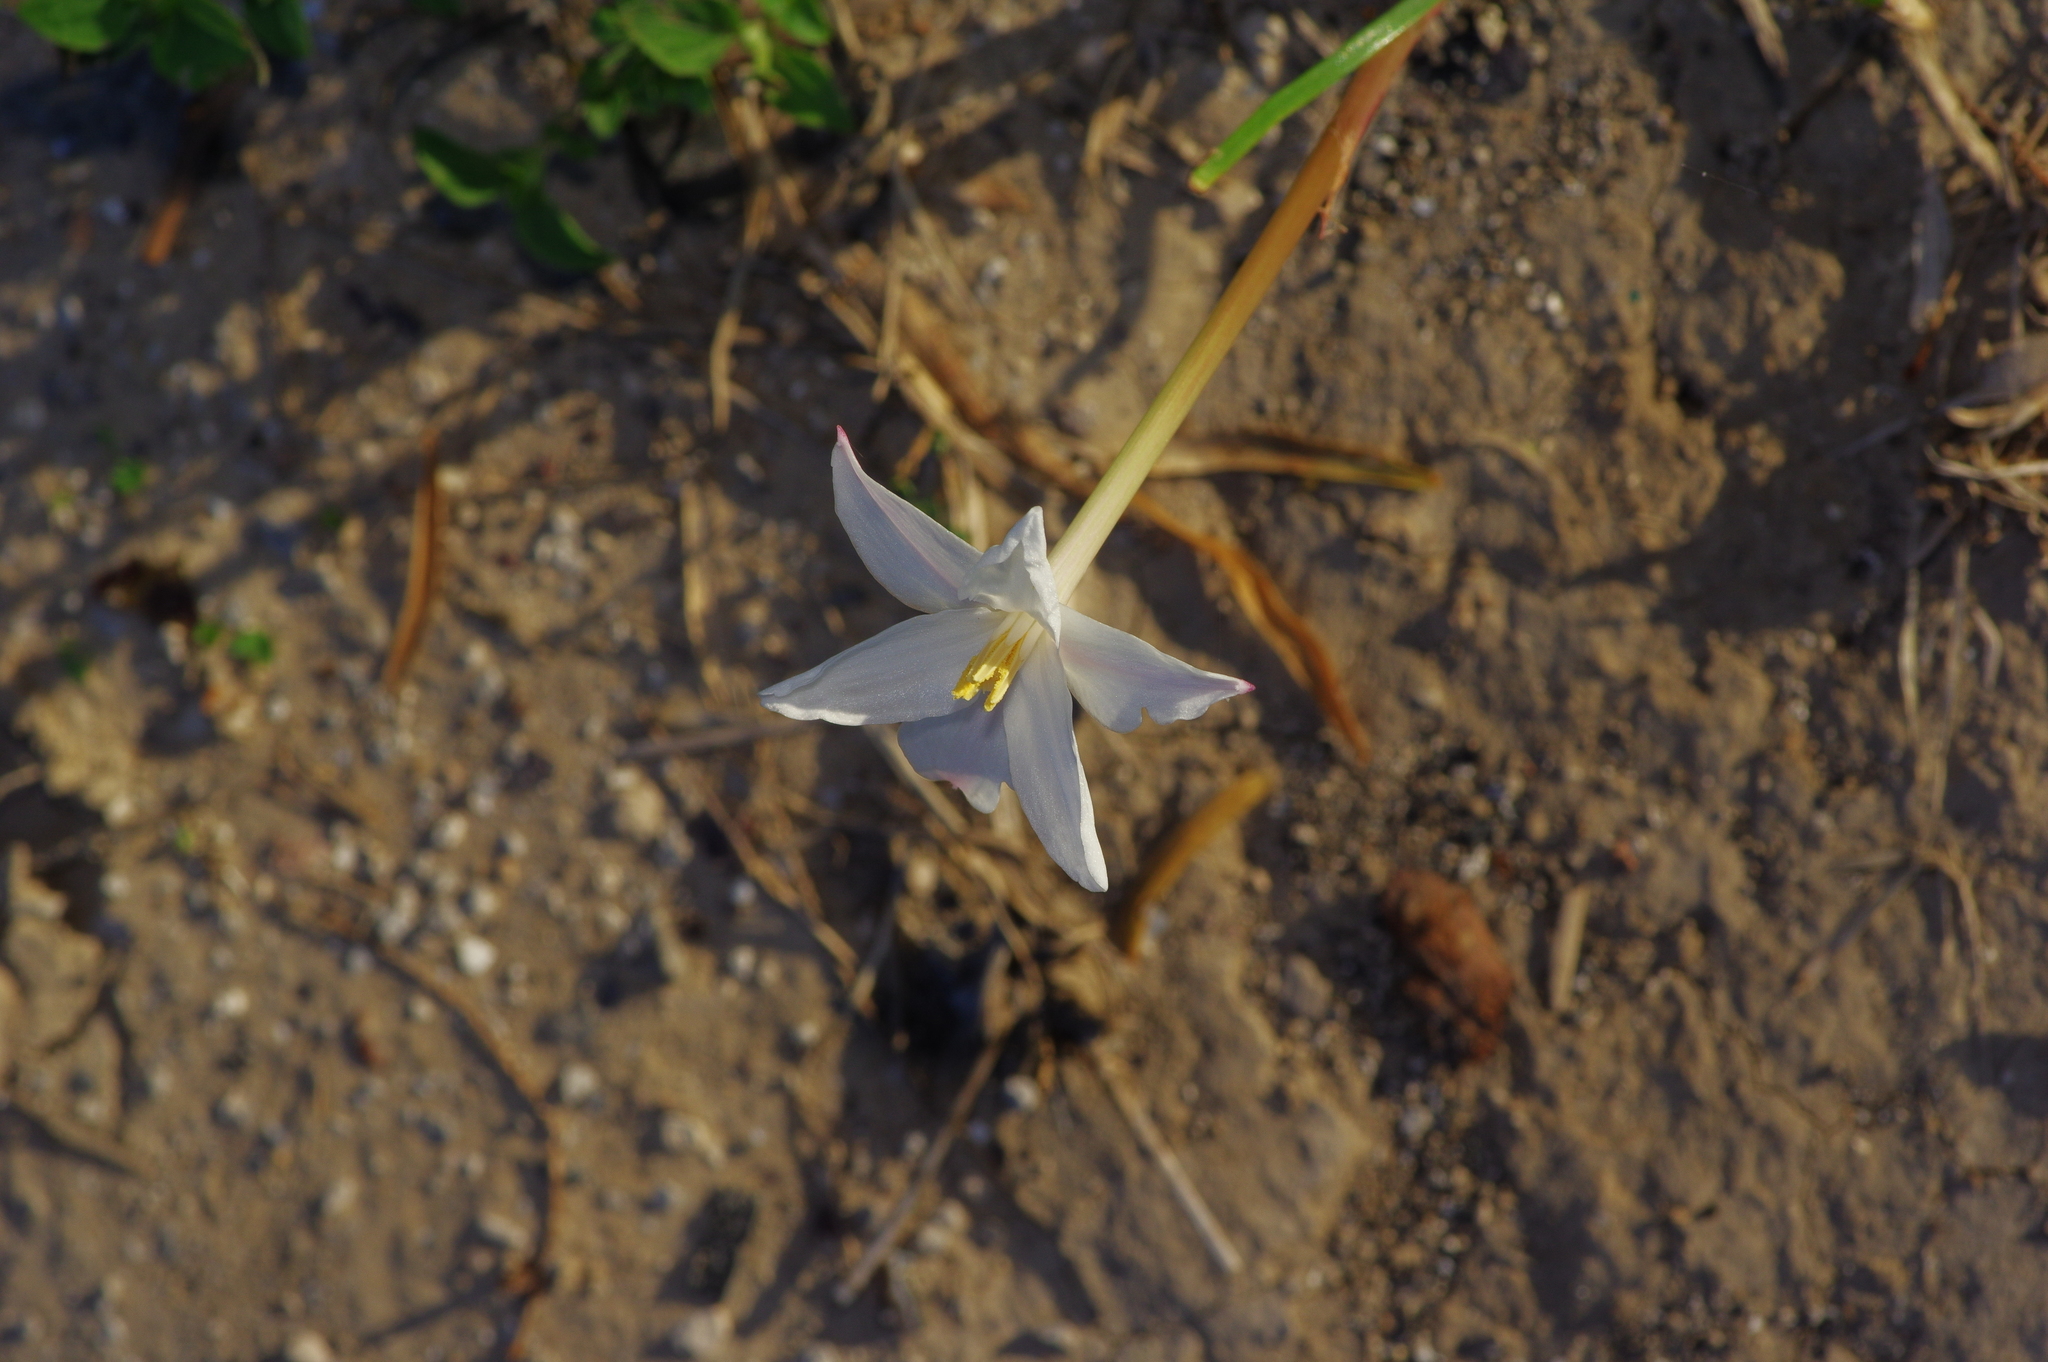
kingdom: Plantae
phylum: Tracheophyta
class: Liliopsida
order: Asparagales
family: Amaryllidaceae
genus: Zephyranthes
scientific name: Zephyranthes chlorosolen
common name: Evening rain-lily
